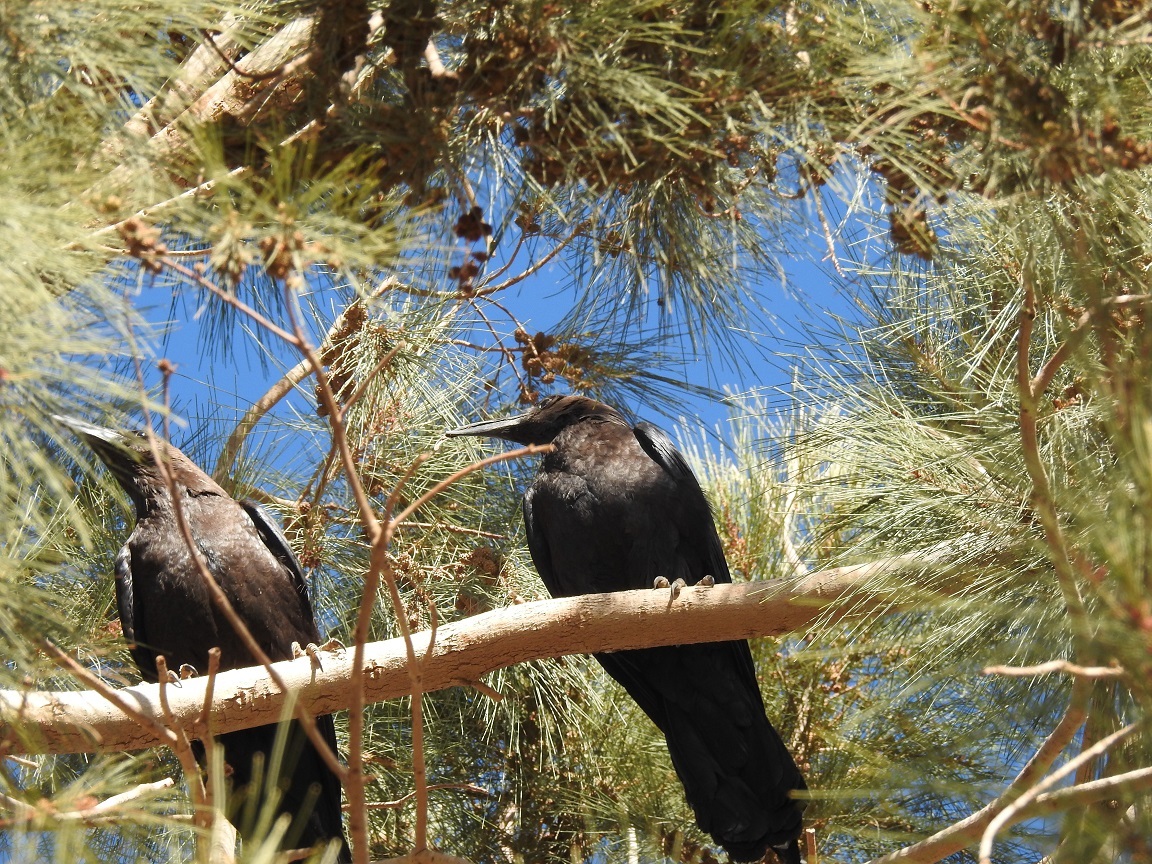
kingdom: Animalia
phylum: Chordata
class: Aves
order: Passeriformes
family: Corvidae
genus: Corvus
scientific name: Corvus ruficollis
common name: Brown-necked raven
